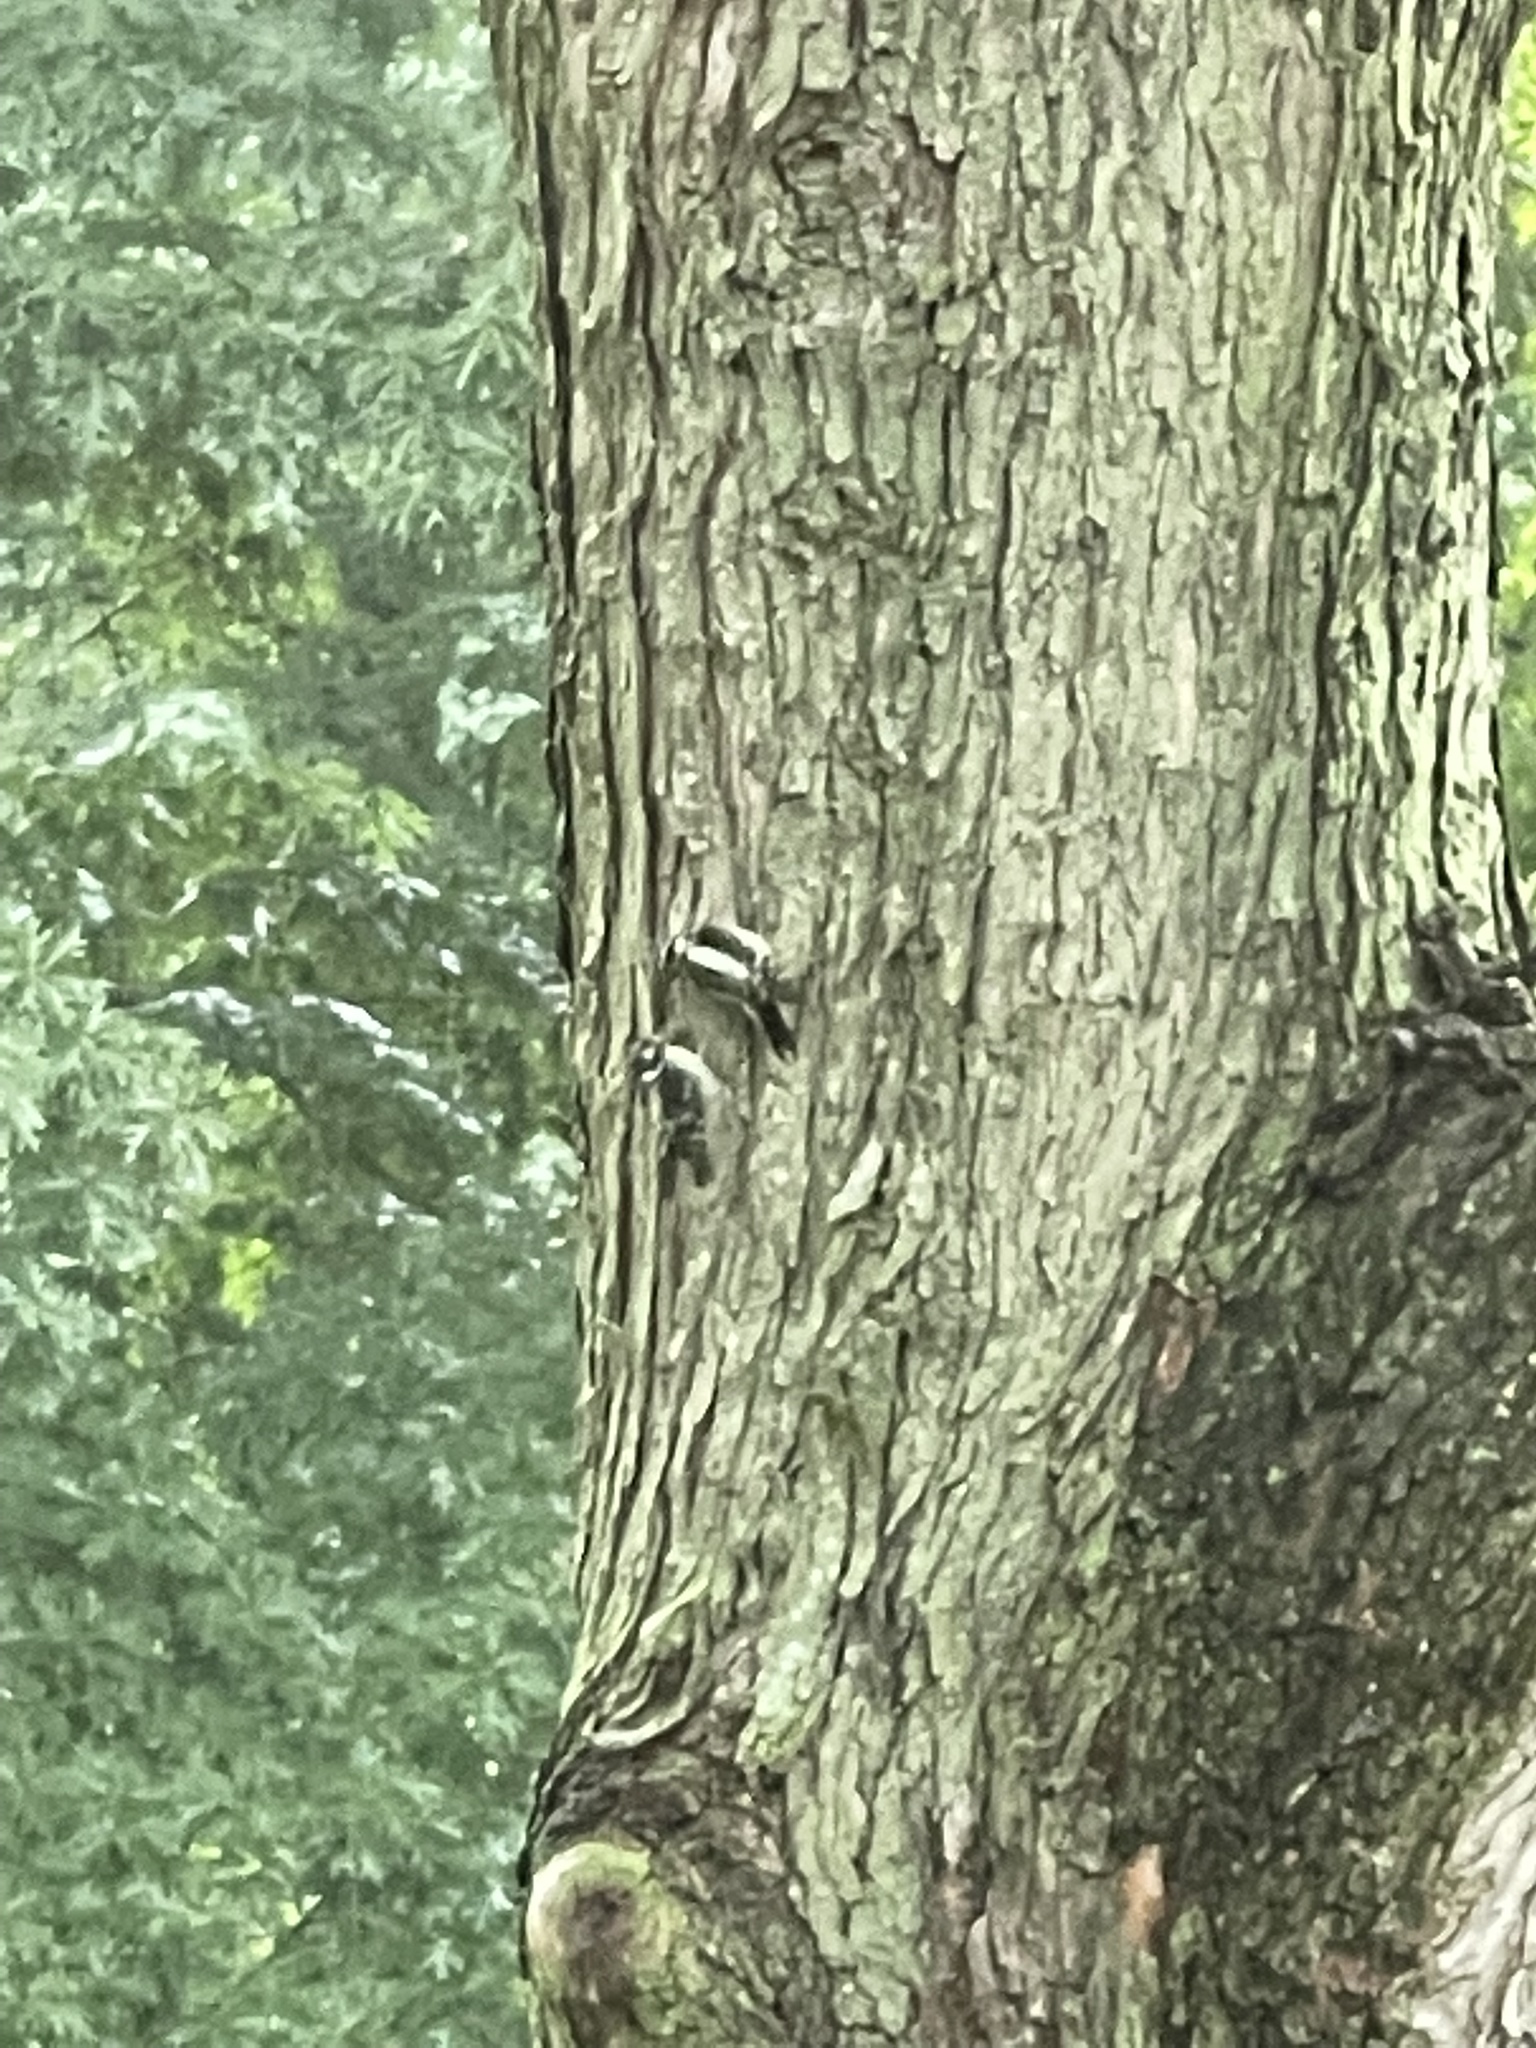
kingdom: Animalia
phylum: Chordata
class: Aves
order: Piciformes
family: Picidae
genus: Dryobates
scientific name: Dryobates pubescens
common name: Downy woodpecker
